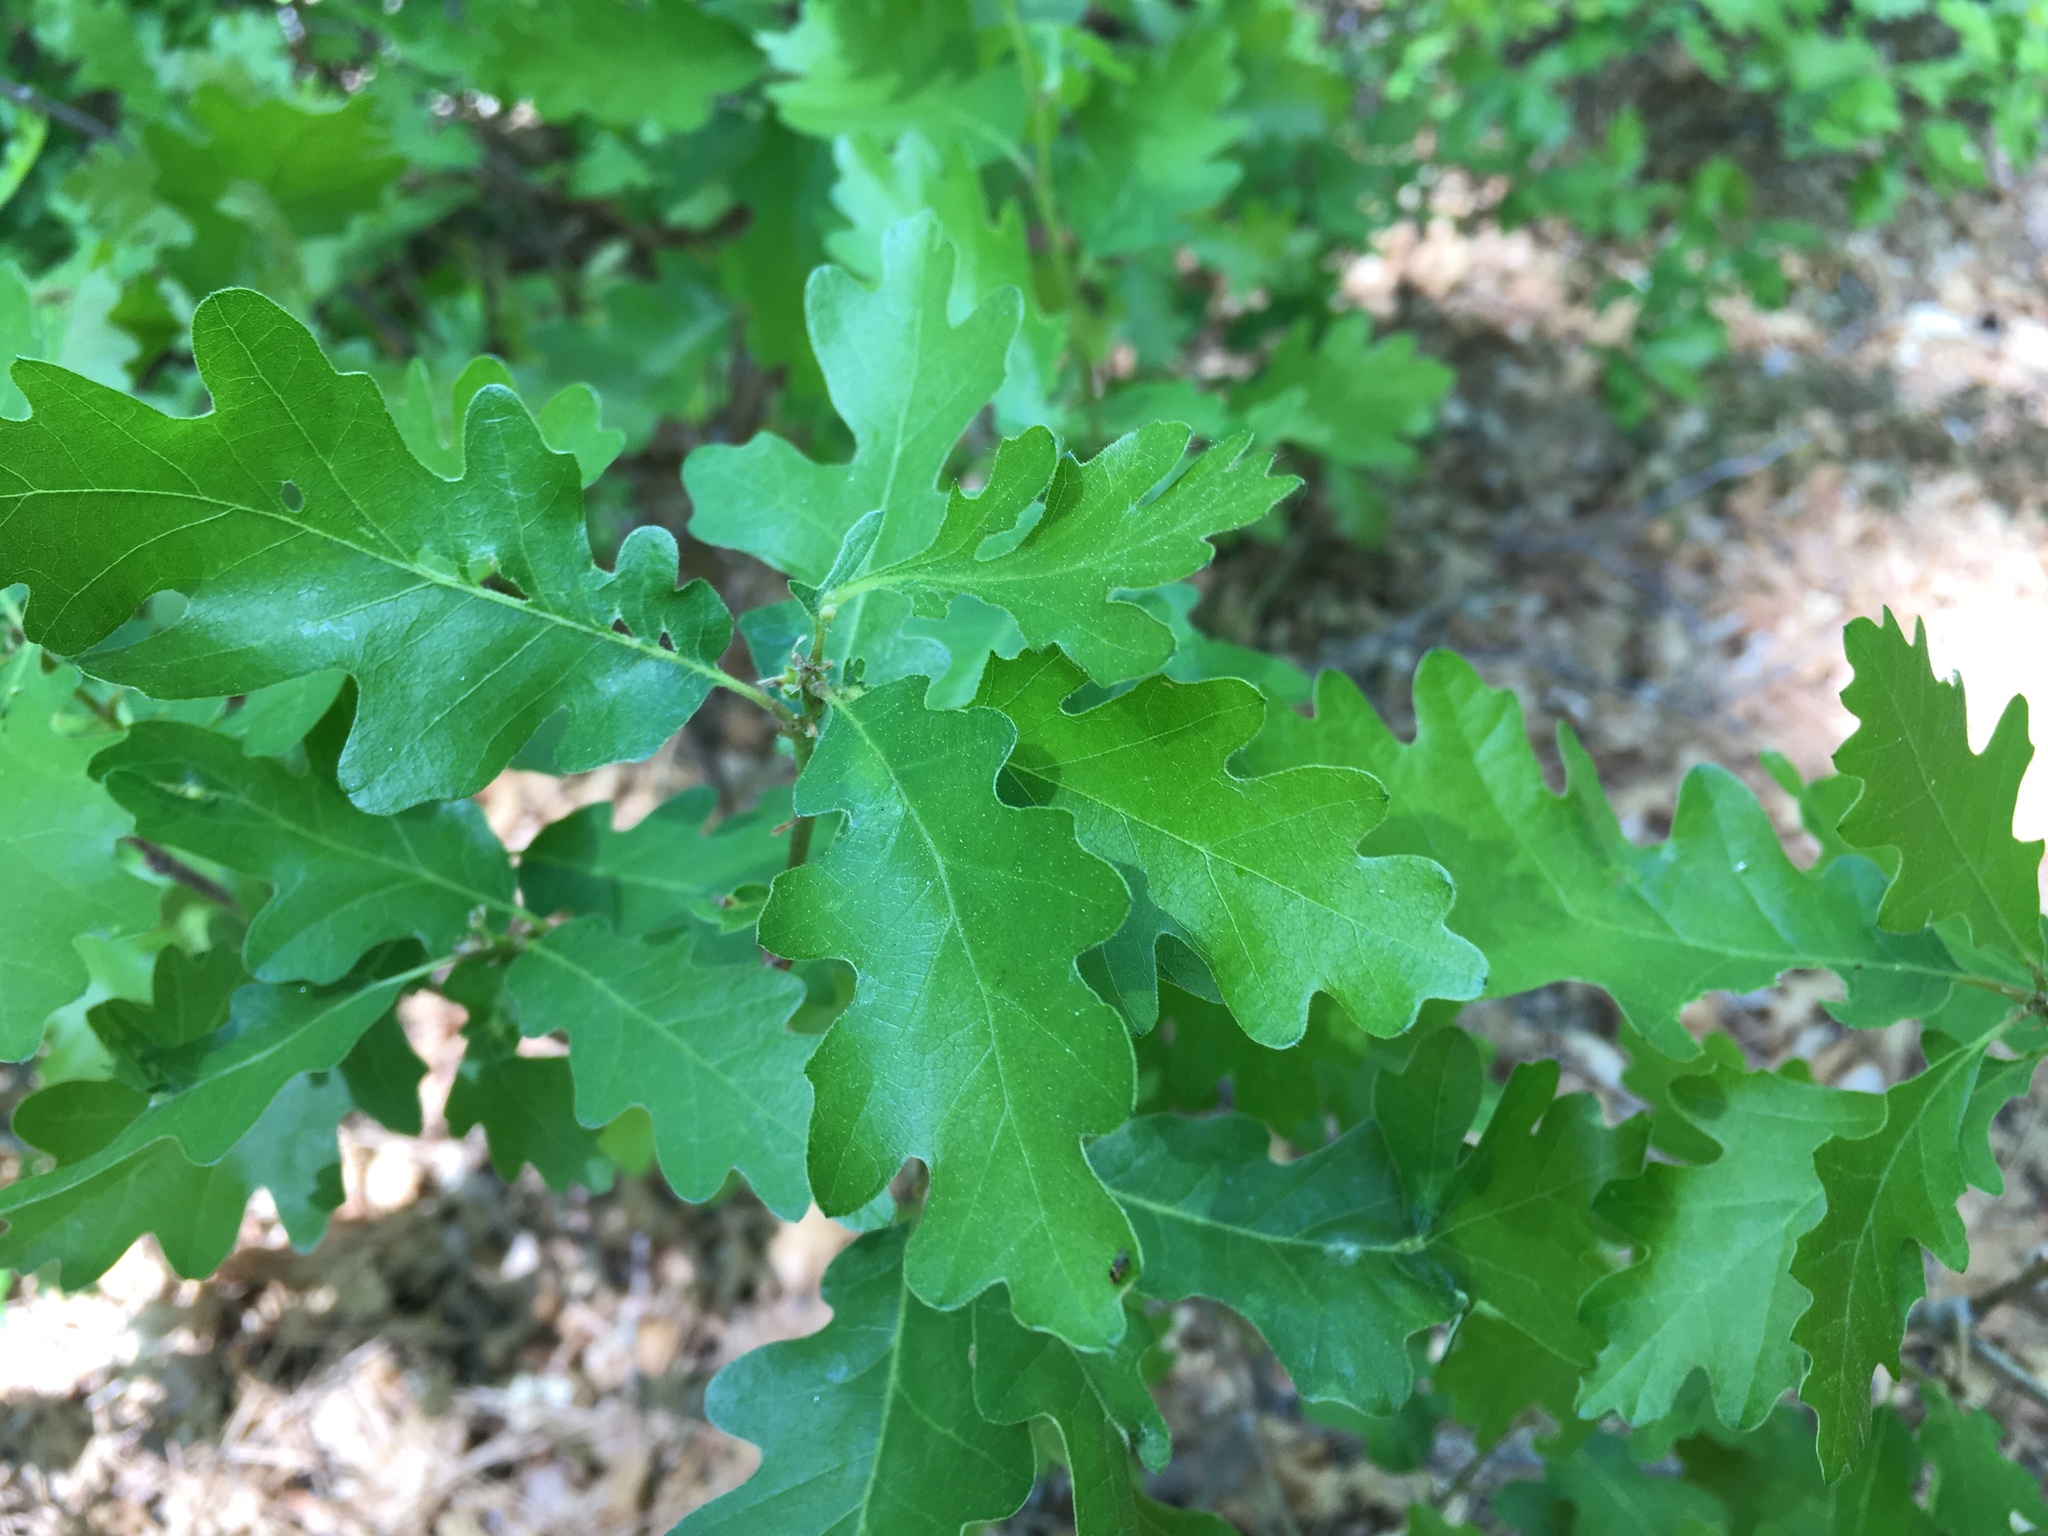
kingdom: Plantae
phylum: Tracheophyta
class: Magnoliopsida
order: Fagales
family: Fagaceae
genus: Quercus
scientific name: Quercus gambelii
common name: Gambel oak
